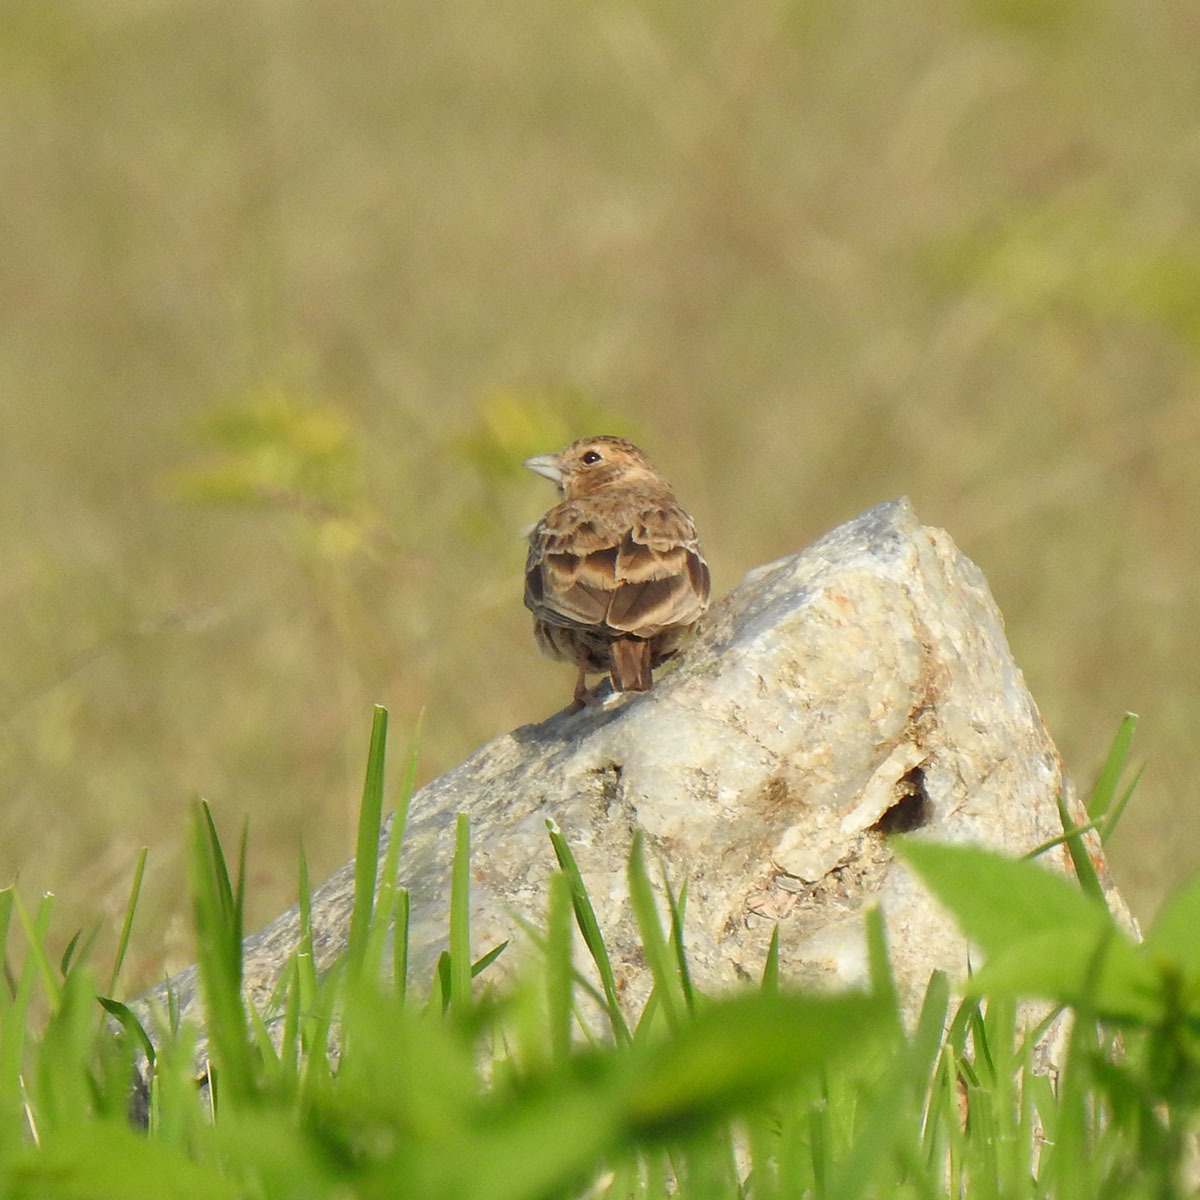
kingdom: Animalia
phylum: Chordata
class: Aves
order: Passeriformes
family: Alaudidae
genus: Eremopterix
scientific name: Eremopterix griseus
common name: Ashy-crowned sparrow-lark
